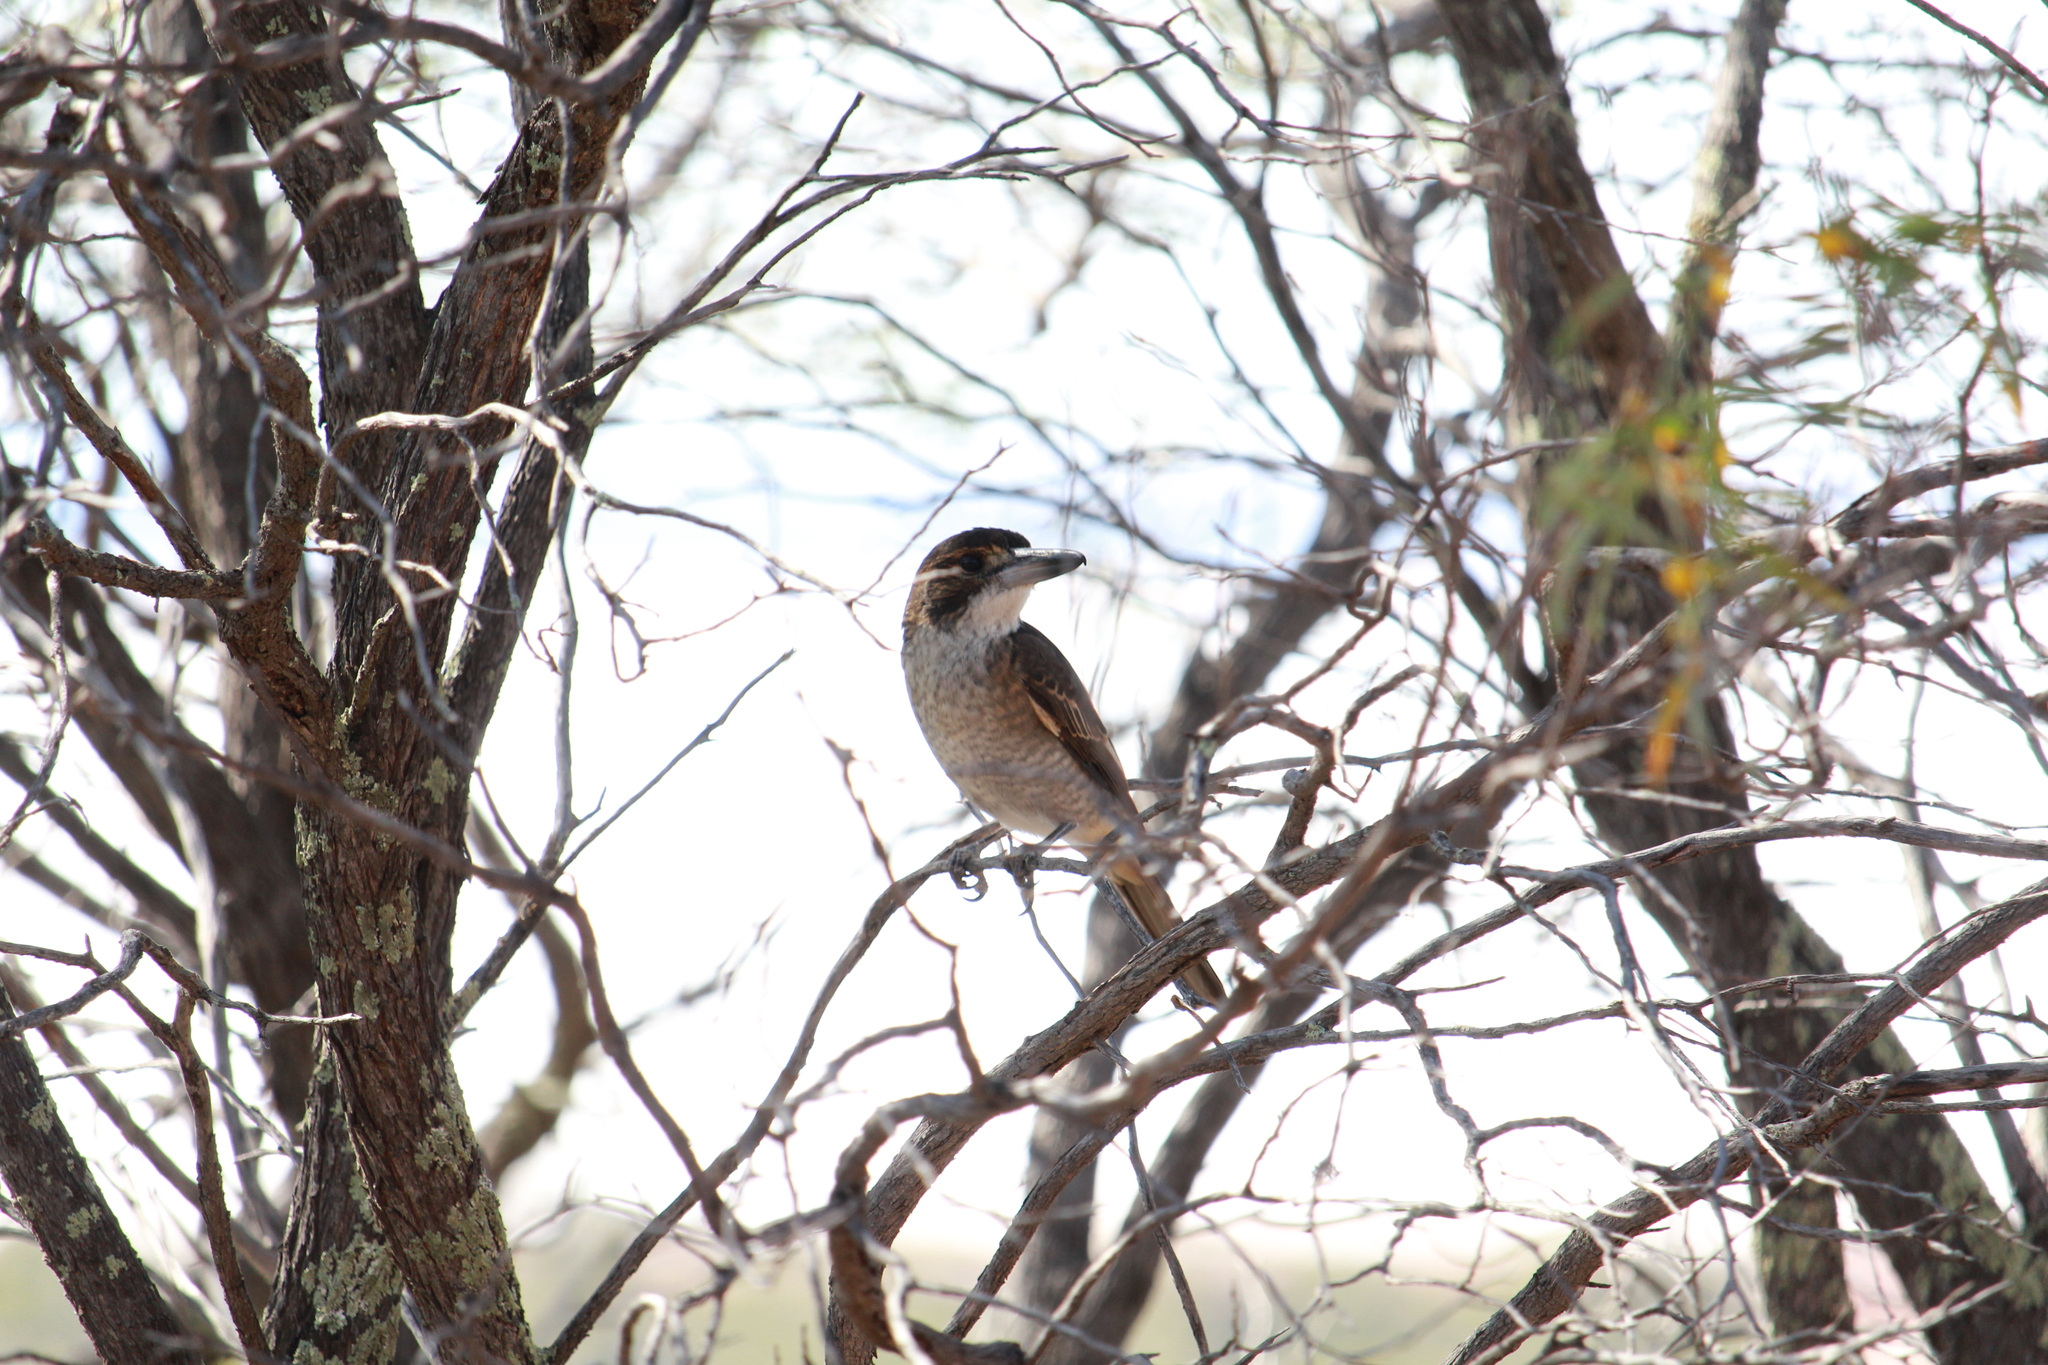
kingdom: Animalia
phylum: Chordata
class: Aves
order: Passeriformes
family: Cracticidae
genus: Cracticus
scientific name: Cracticus torquatus
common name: Grey butcherbird
